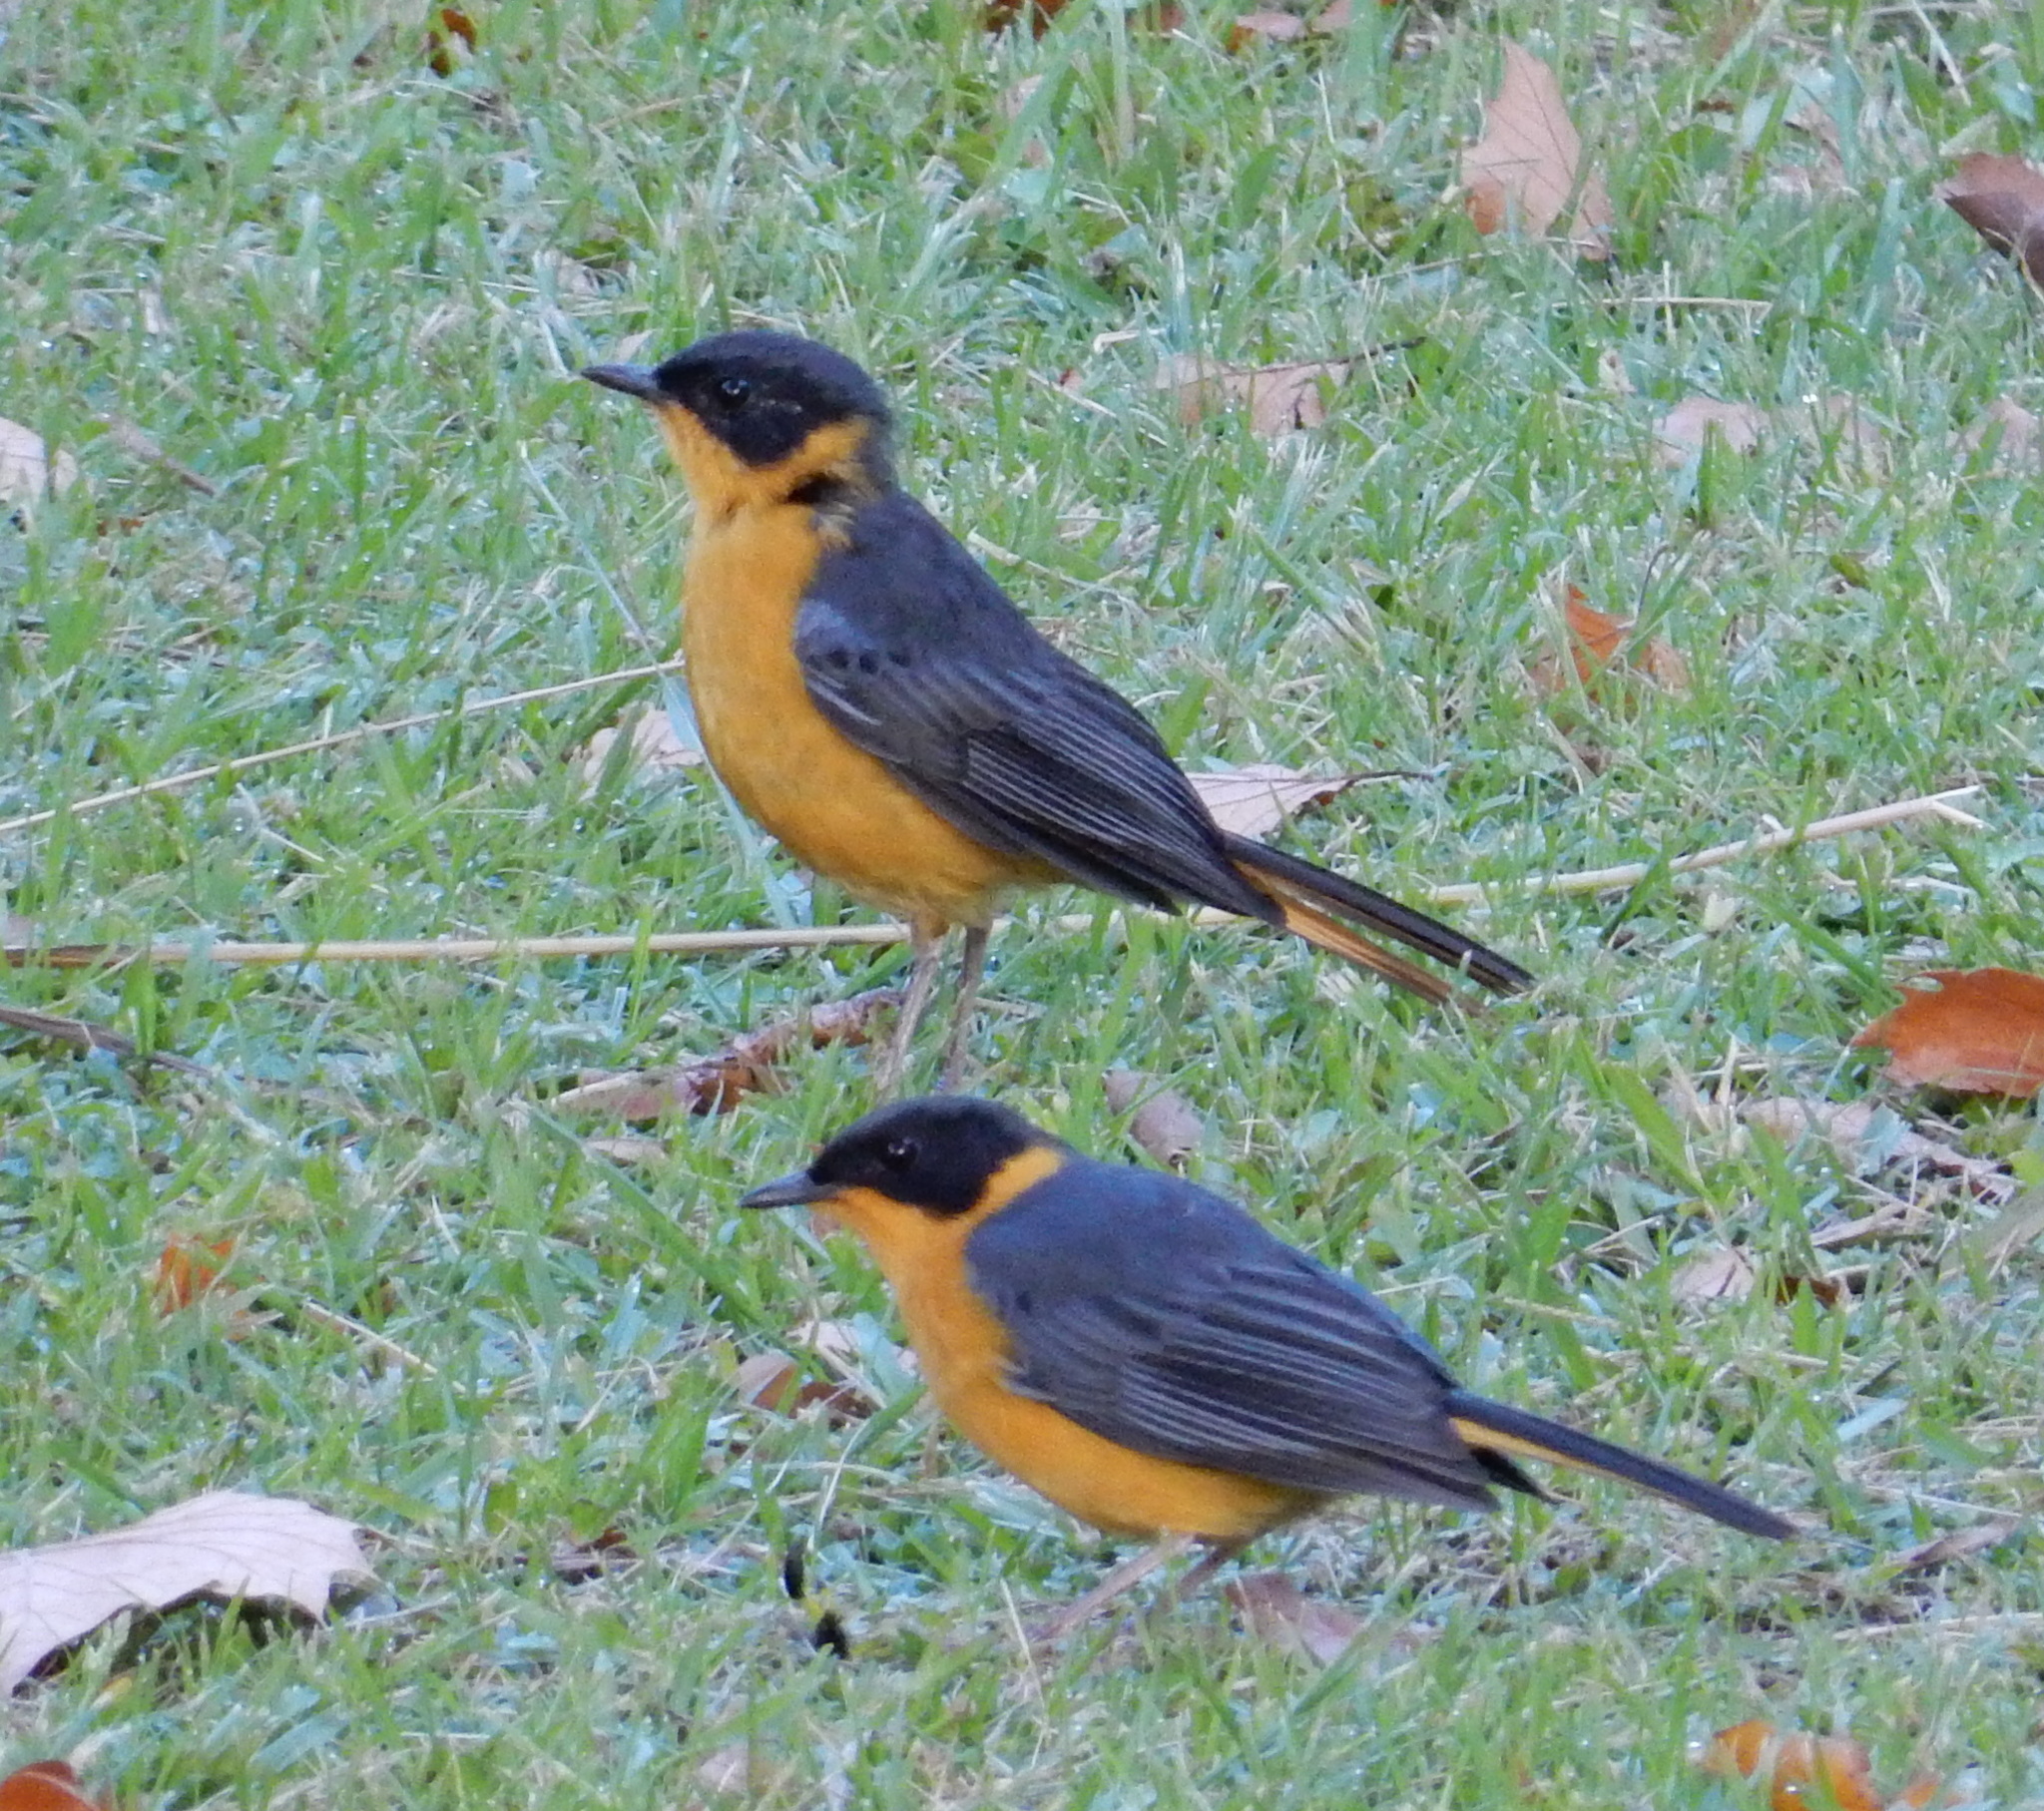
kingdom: Animalia
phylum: Chordata
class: Aves
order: Passeriformes
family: Muscicapidae
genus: Cossypha
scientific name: Cossypha dichroa
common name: Chorister robin-chat
